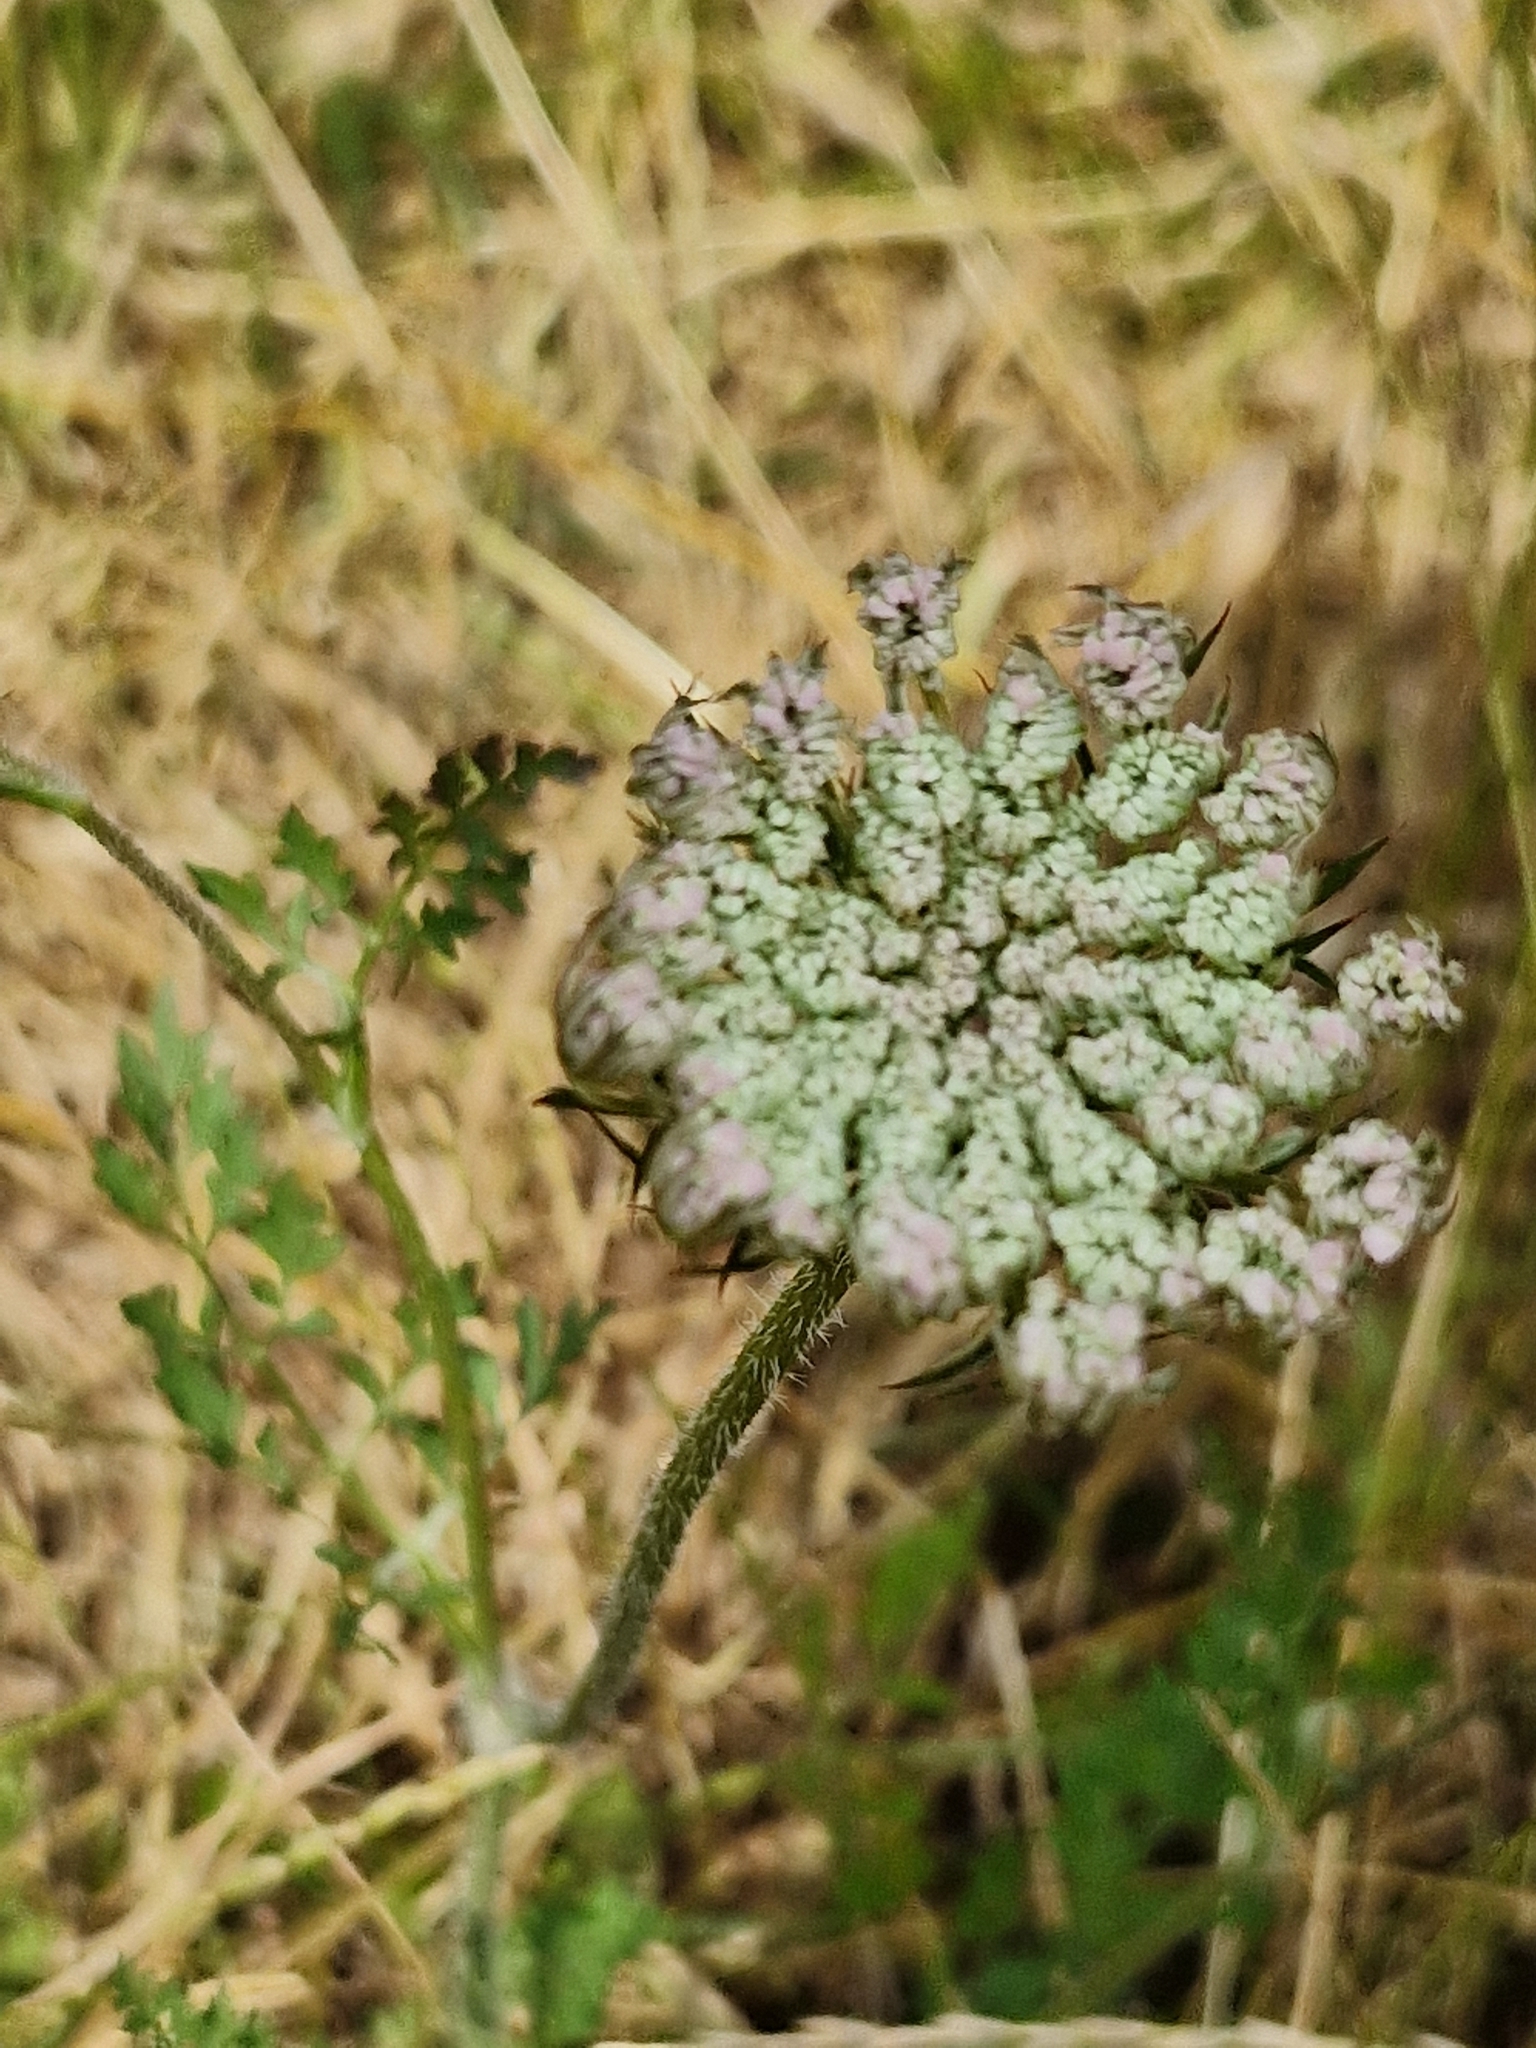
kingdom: Plantae
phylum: Tracheophyta
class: Magnoliopsida
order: Apiales
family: Apiaceae
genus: Daucus
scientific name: Daucus carota
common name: Wild carrot
